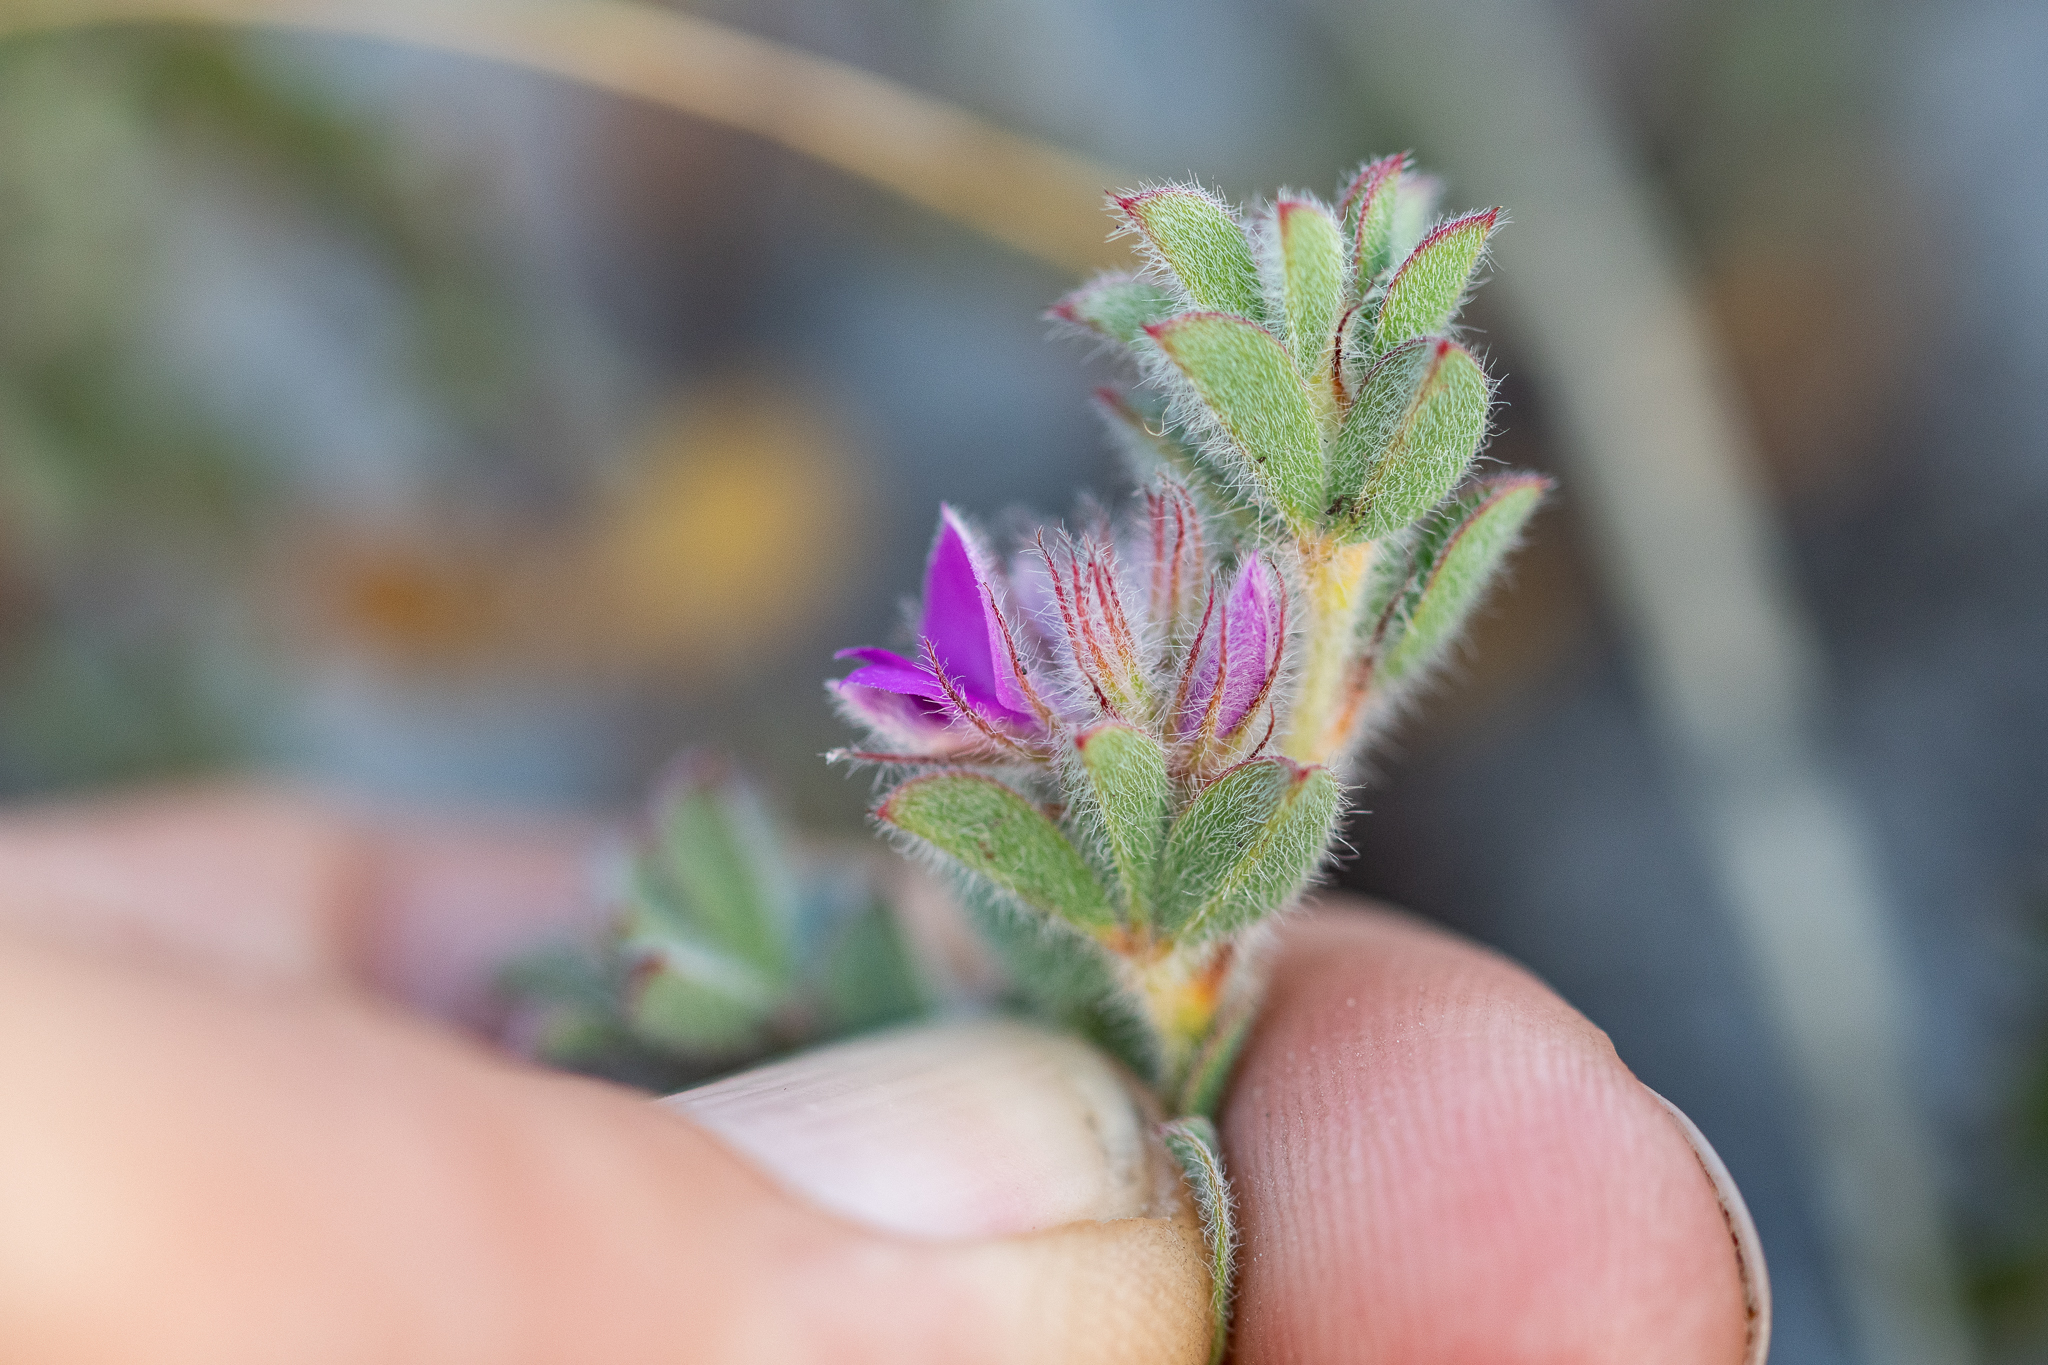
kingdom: Plantae
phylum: Tracheophyta
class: Magnoliopsida
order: Fabales
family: Fabaceae
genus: Indigofera
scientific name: Indigofera glomerata
